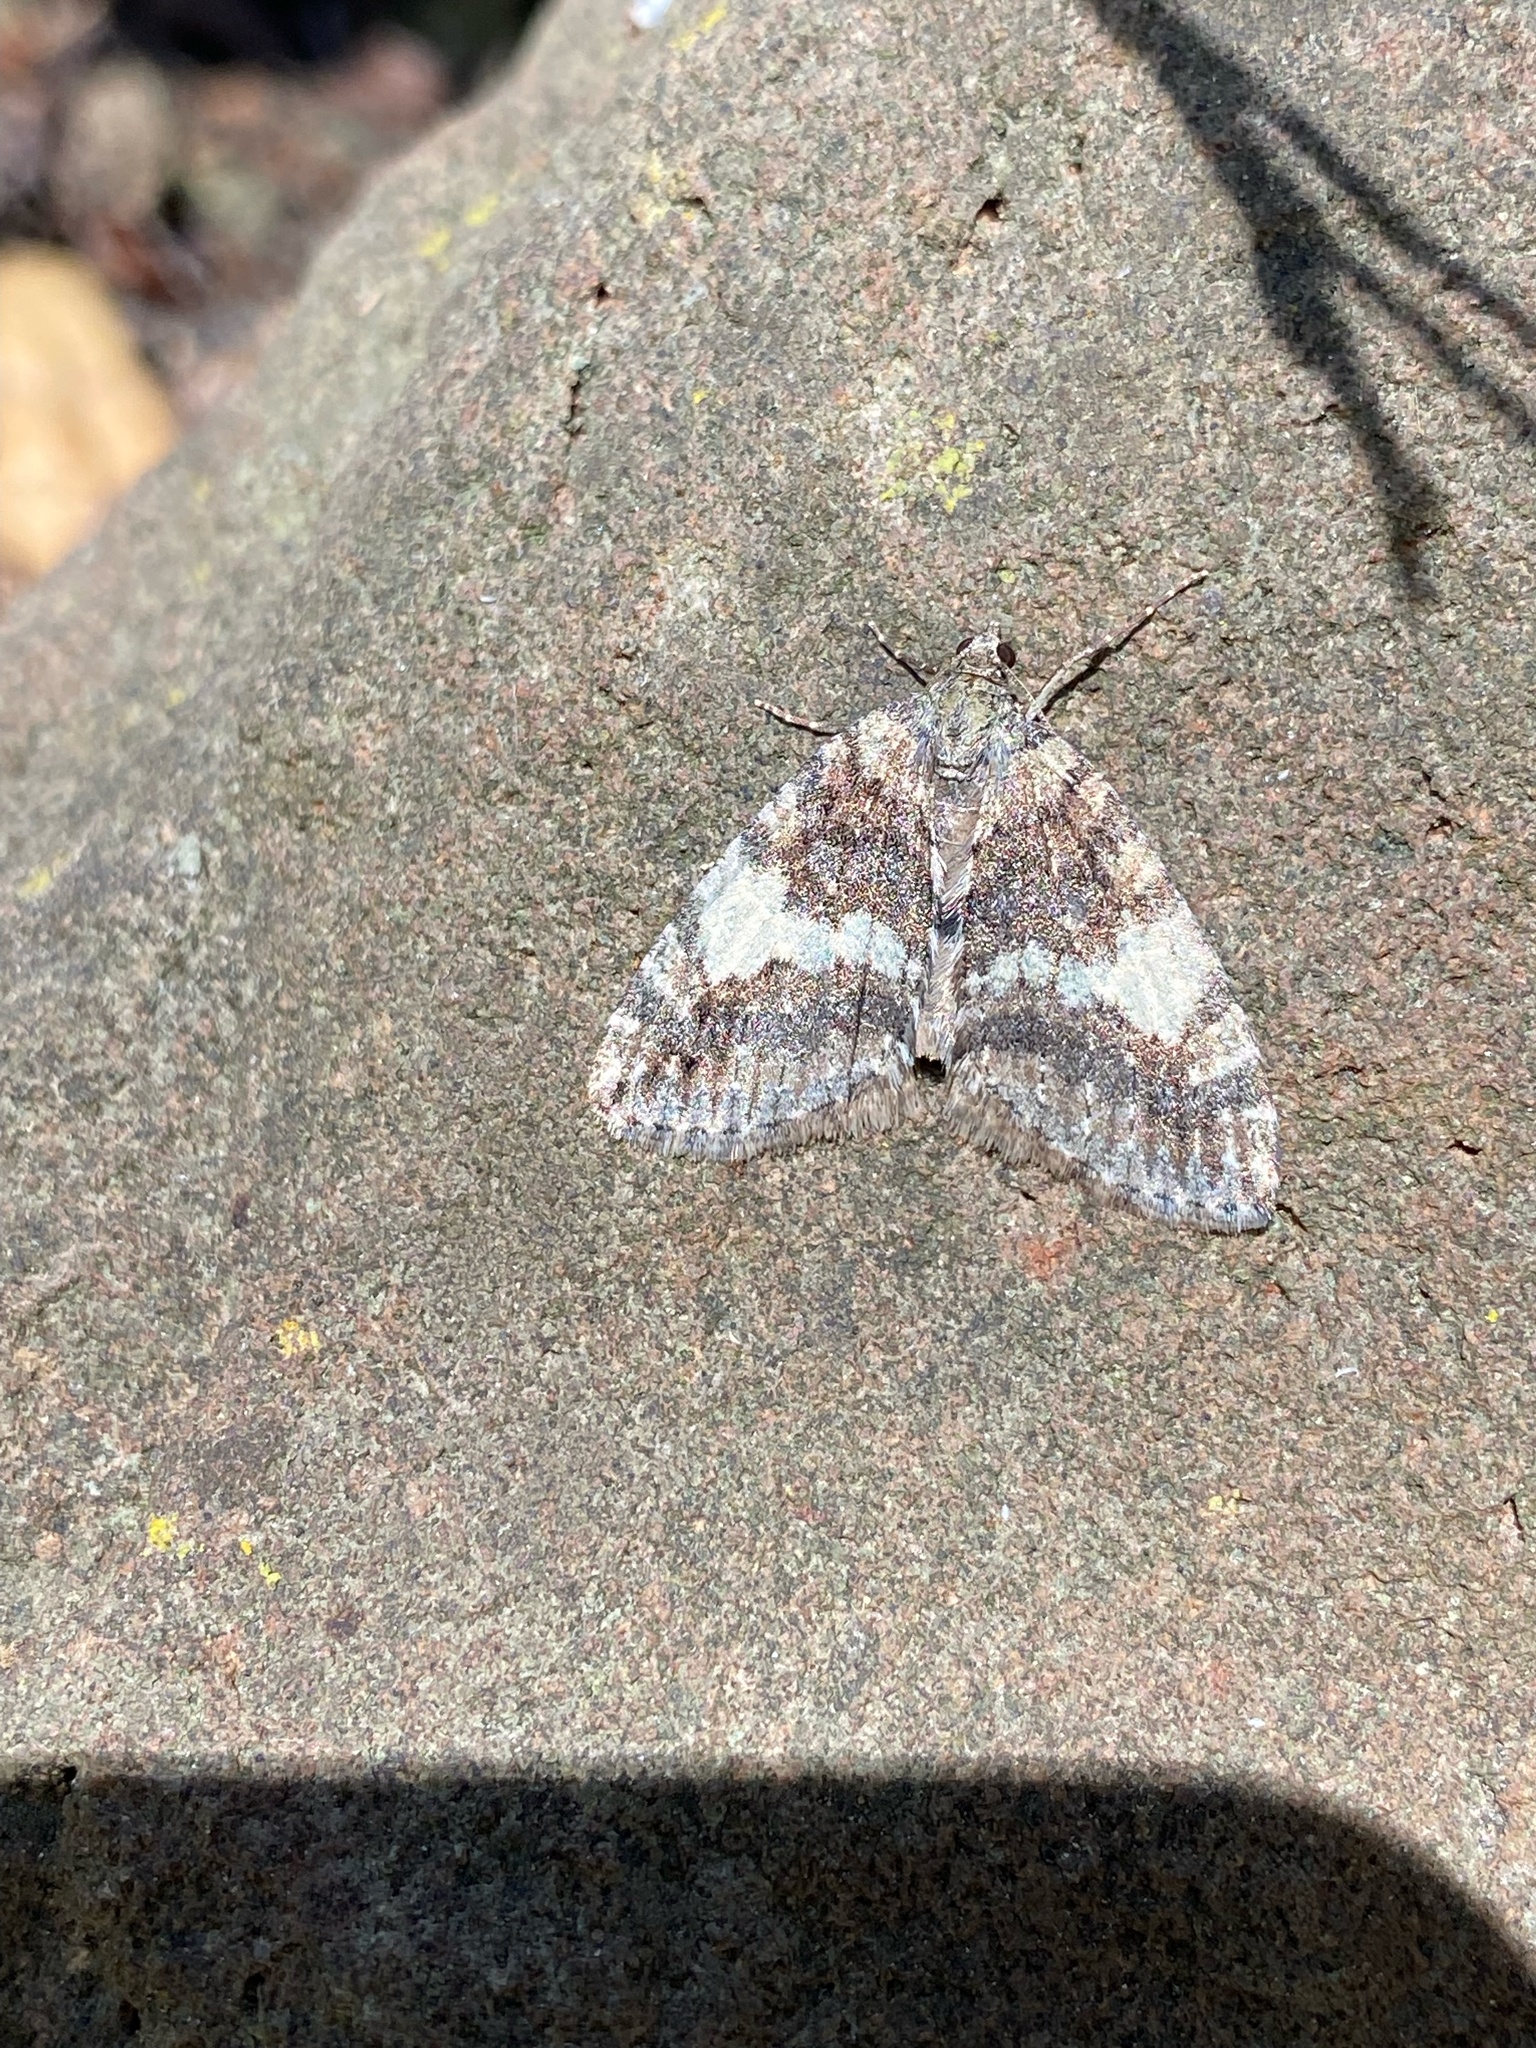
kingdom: Animalia
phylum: Arthropoda
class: Insecta
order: Lepidoptera
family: Geometridae
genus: Hydriomena
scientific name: Hydriomena nubilofasciata
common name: Oak winter highflier moth
